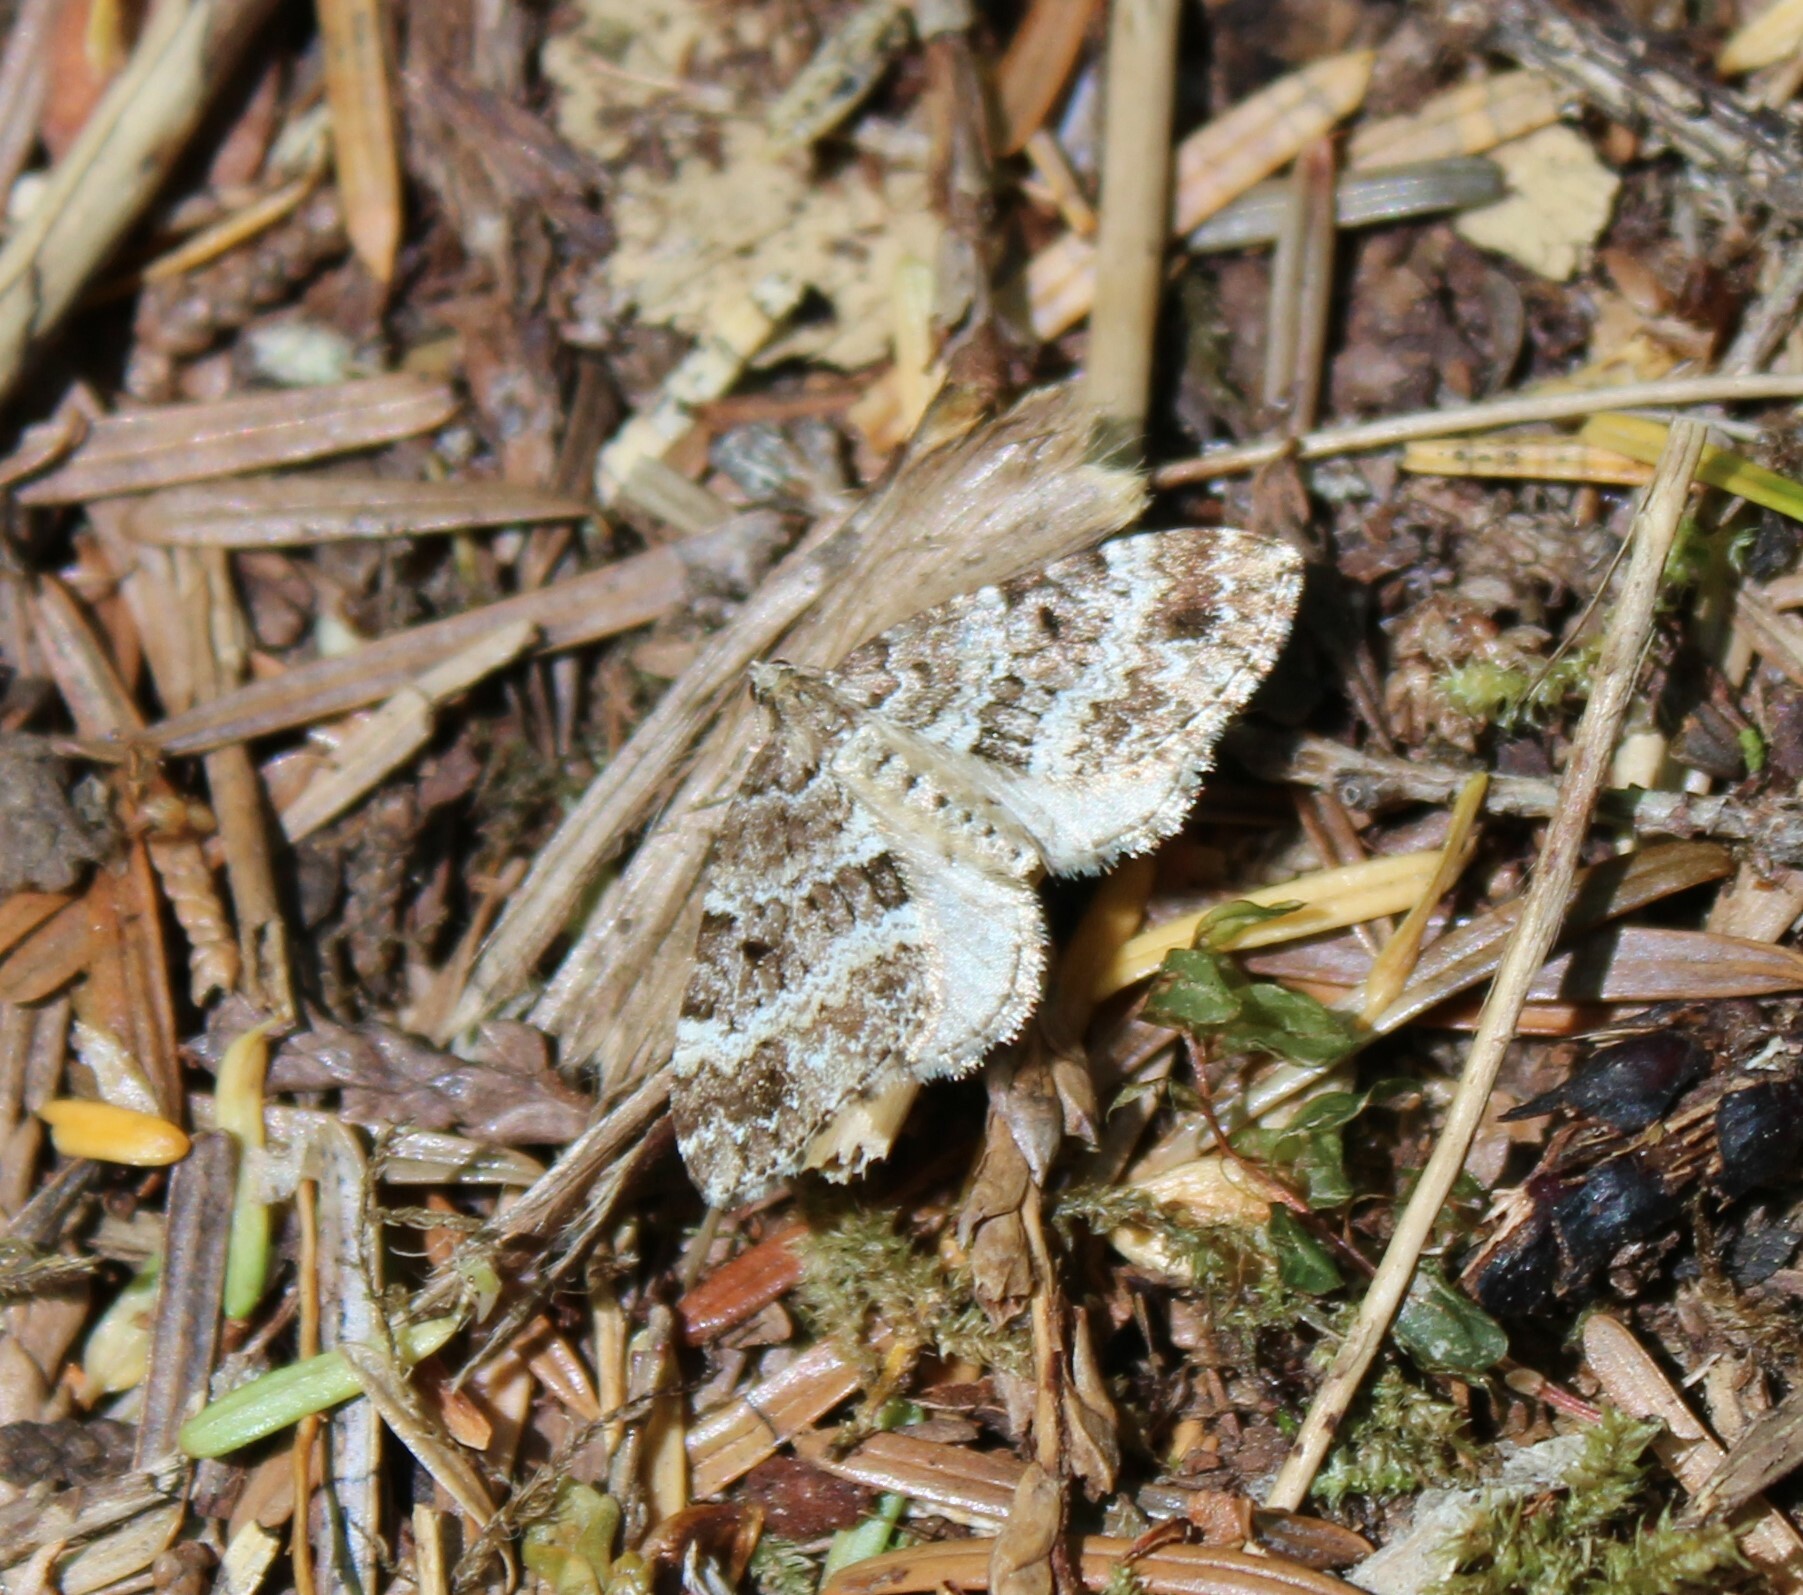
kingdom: Animalia
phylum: Arthropoda
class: Insecta
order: Lepidoptera
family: Geometridae
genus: Martania
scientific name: Martania
